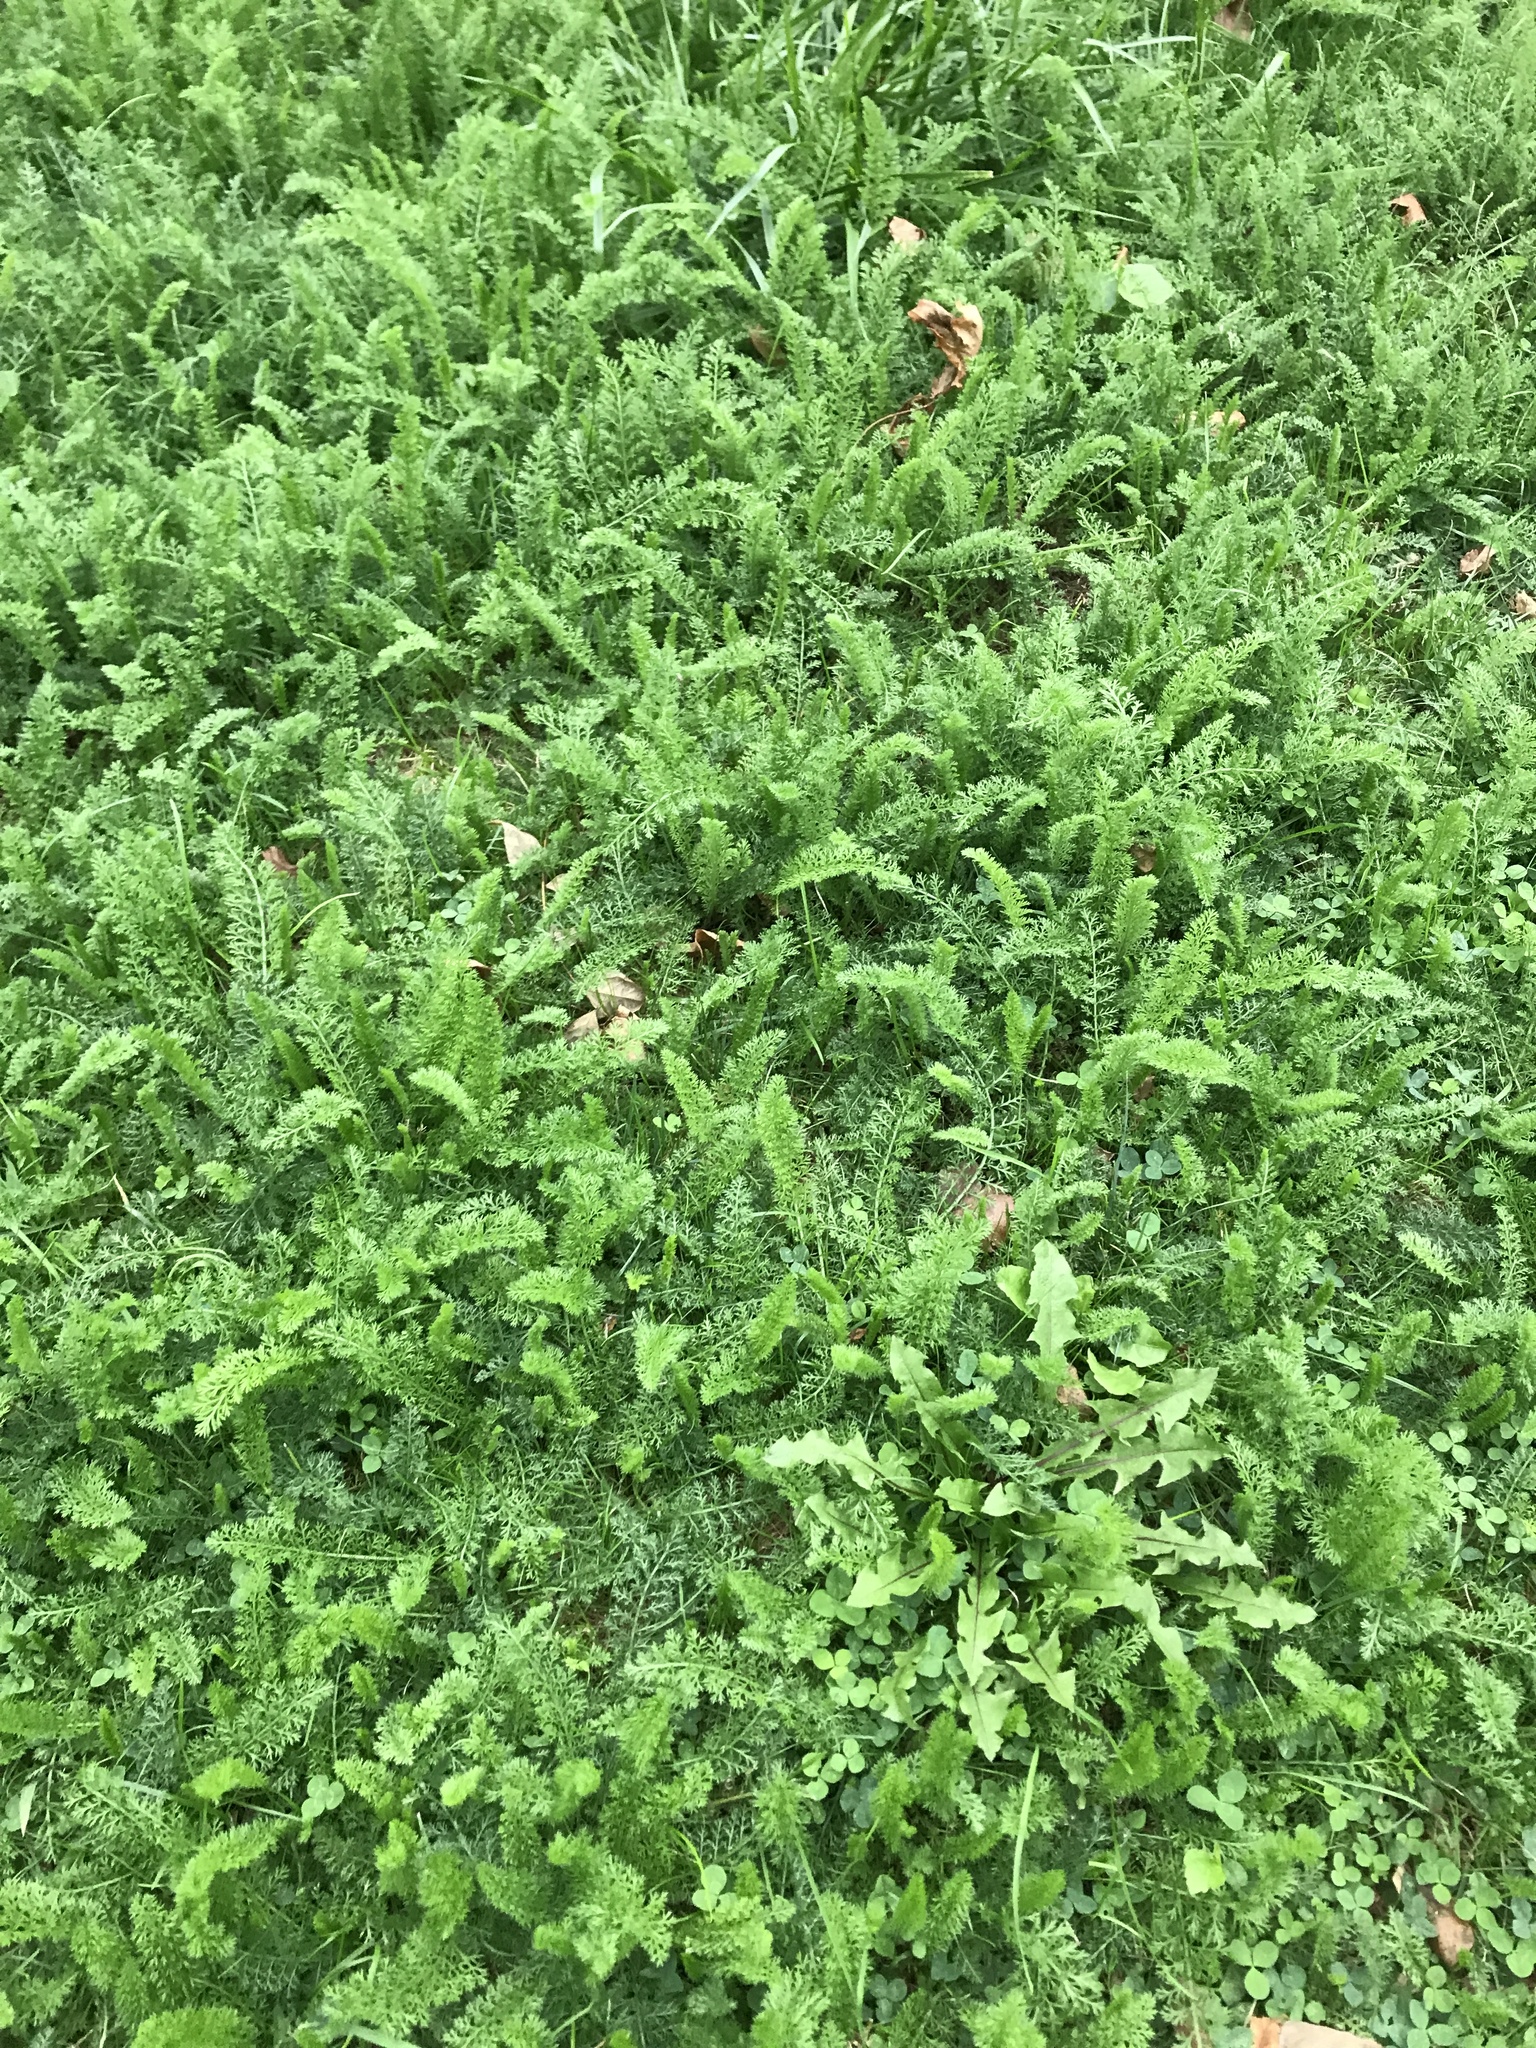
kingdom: Plantae
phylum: Tracheophyta
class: Magnoliopsida
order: Asterales
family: Asteraceae
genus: Achillea
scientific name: Achillea millefolium
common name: Yarrow
